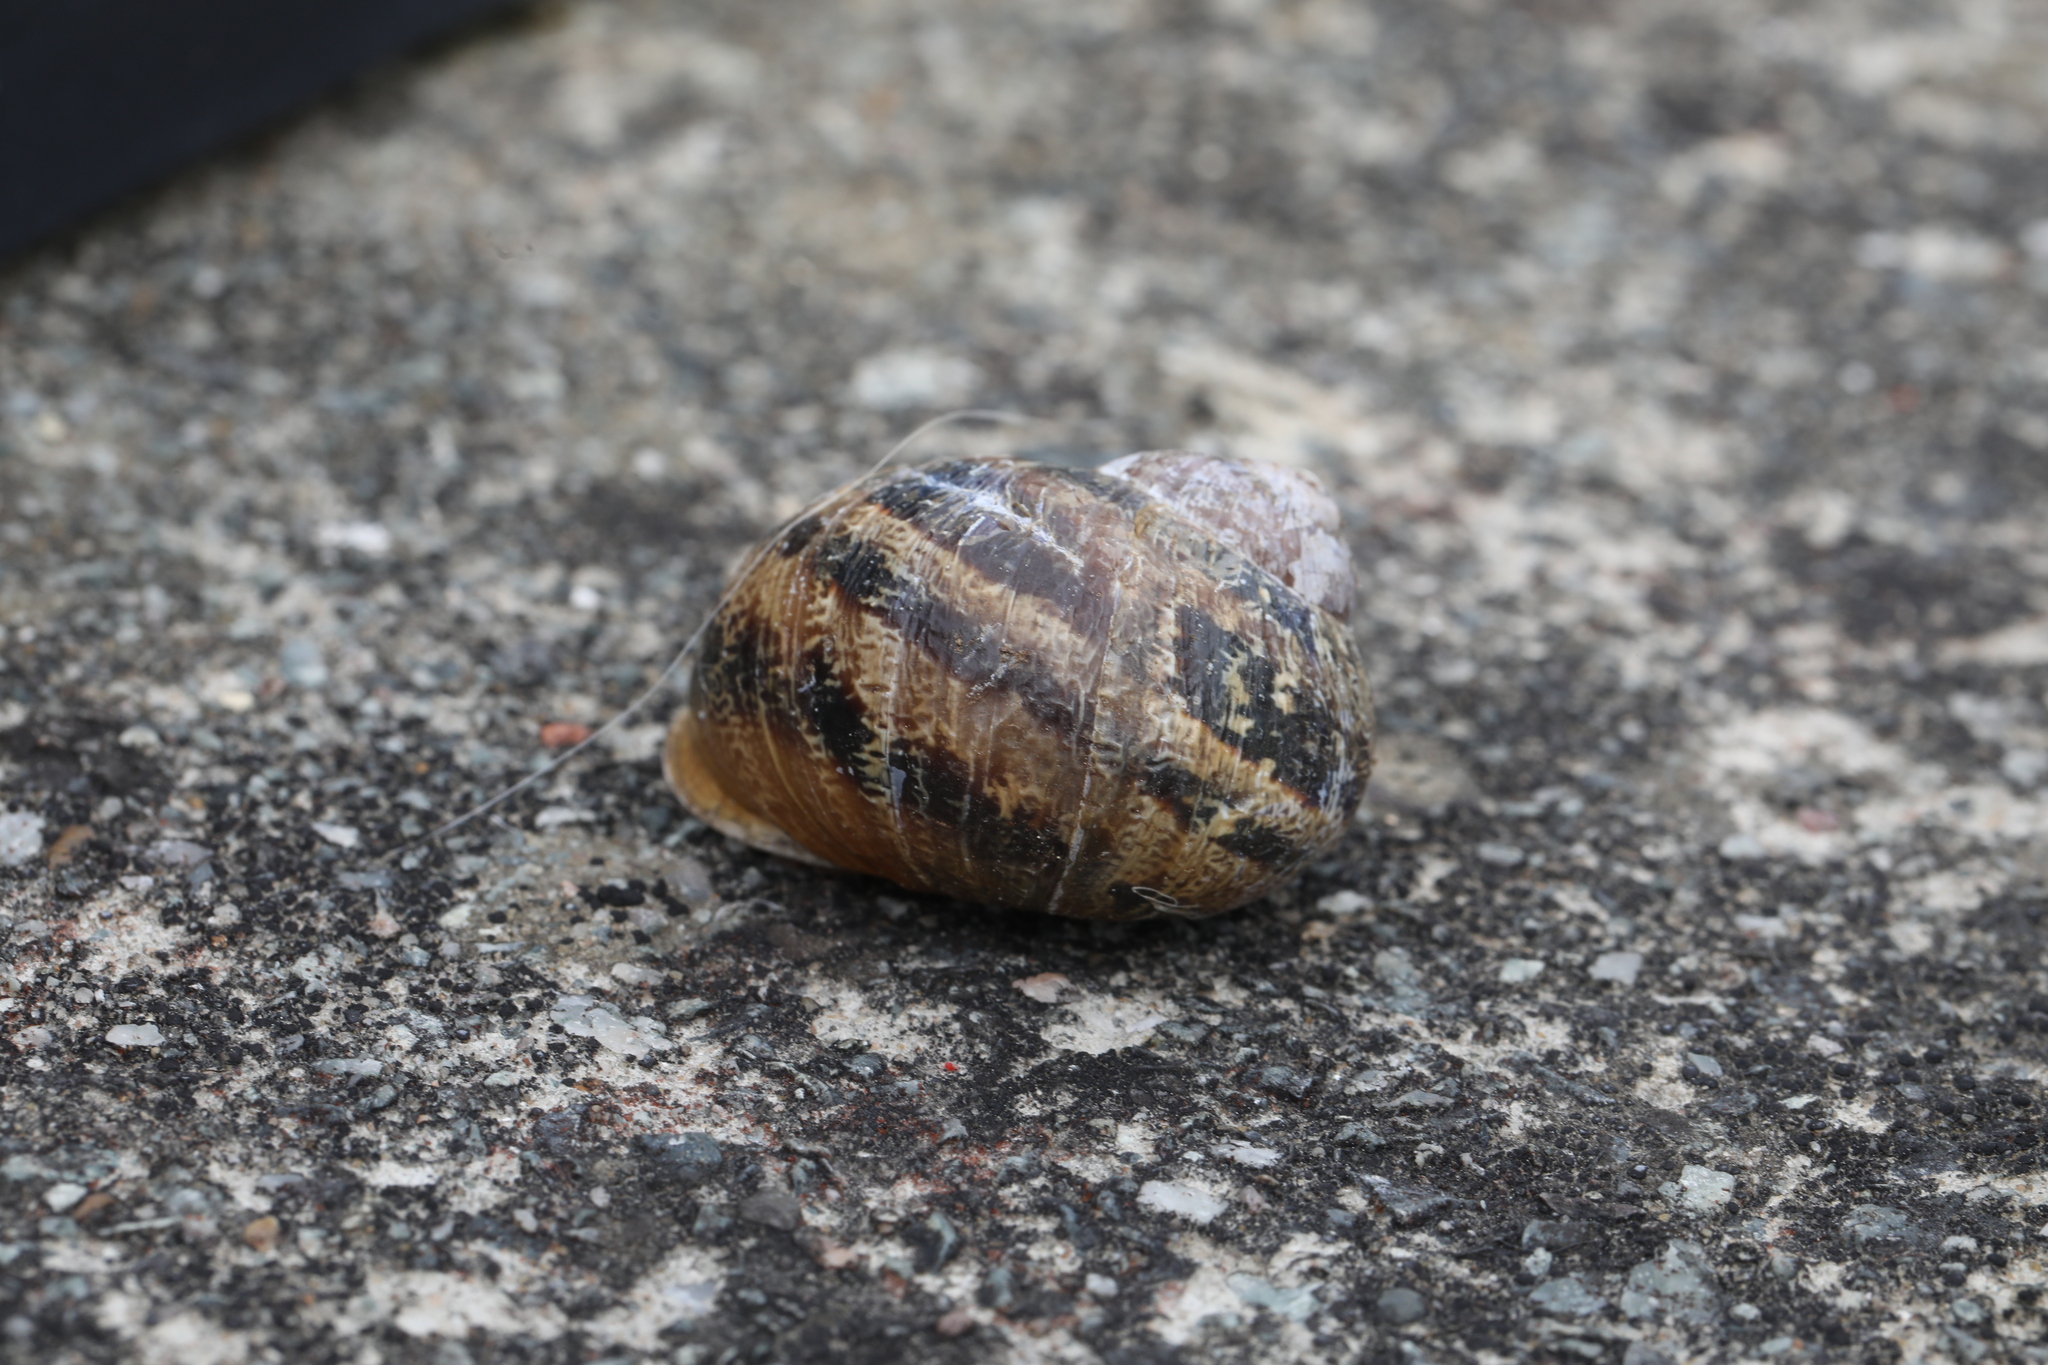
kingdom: Animalia
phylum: Mollusca
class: Gastropoda
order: Stylommatophora
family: Helicidae
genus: Cornu
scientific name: Cornu aspersum
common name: Brown garden snail
